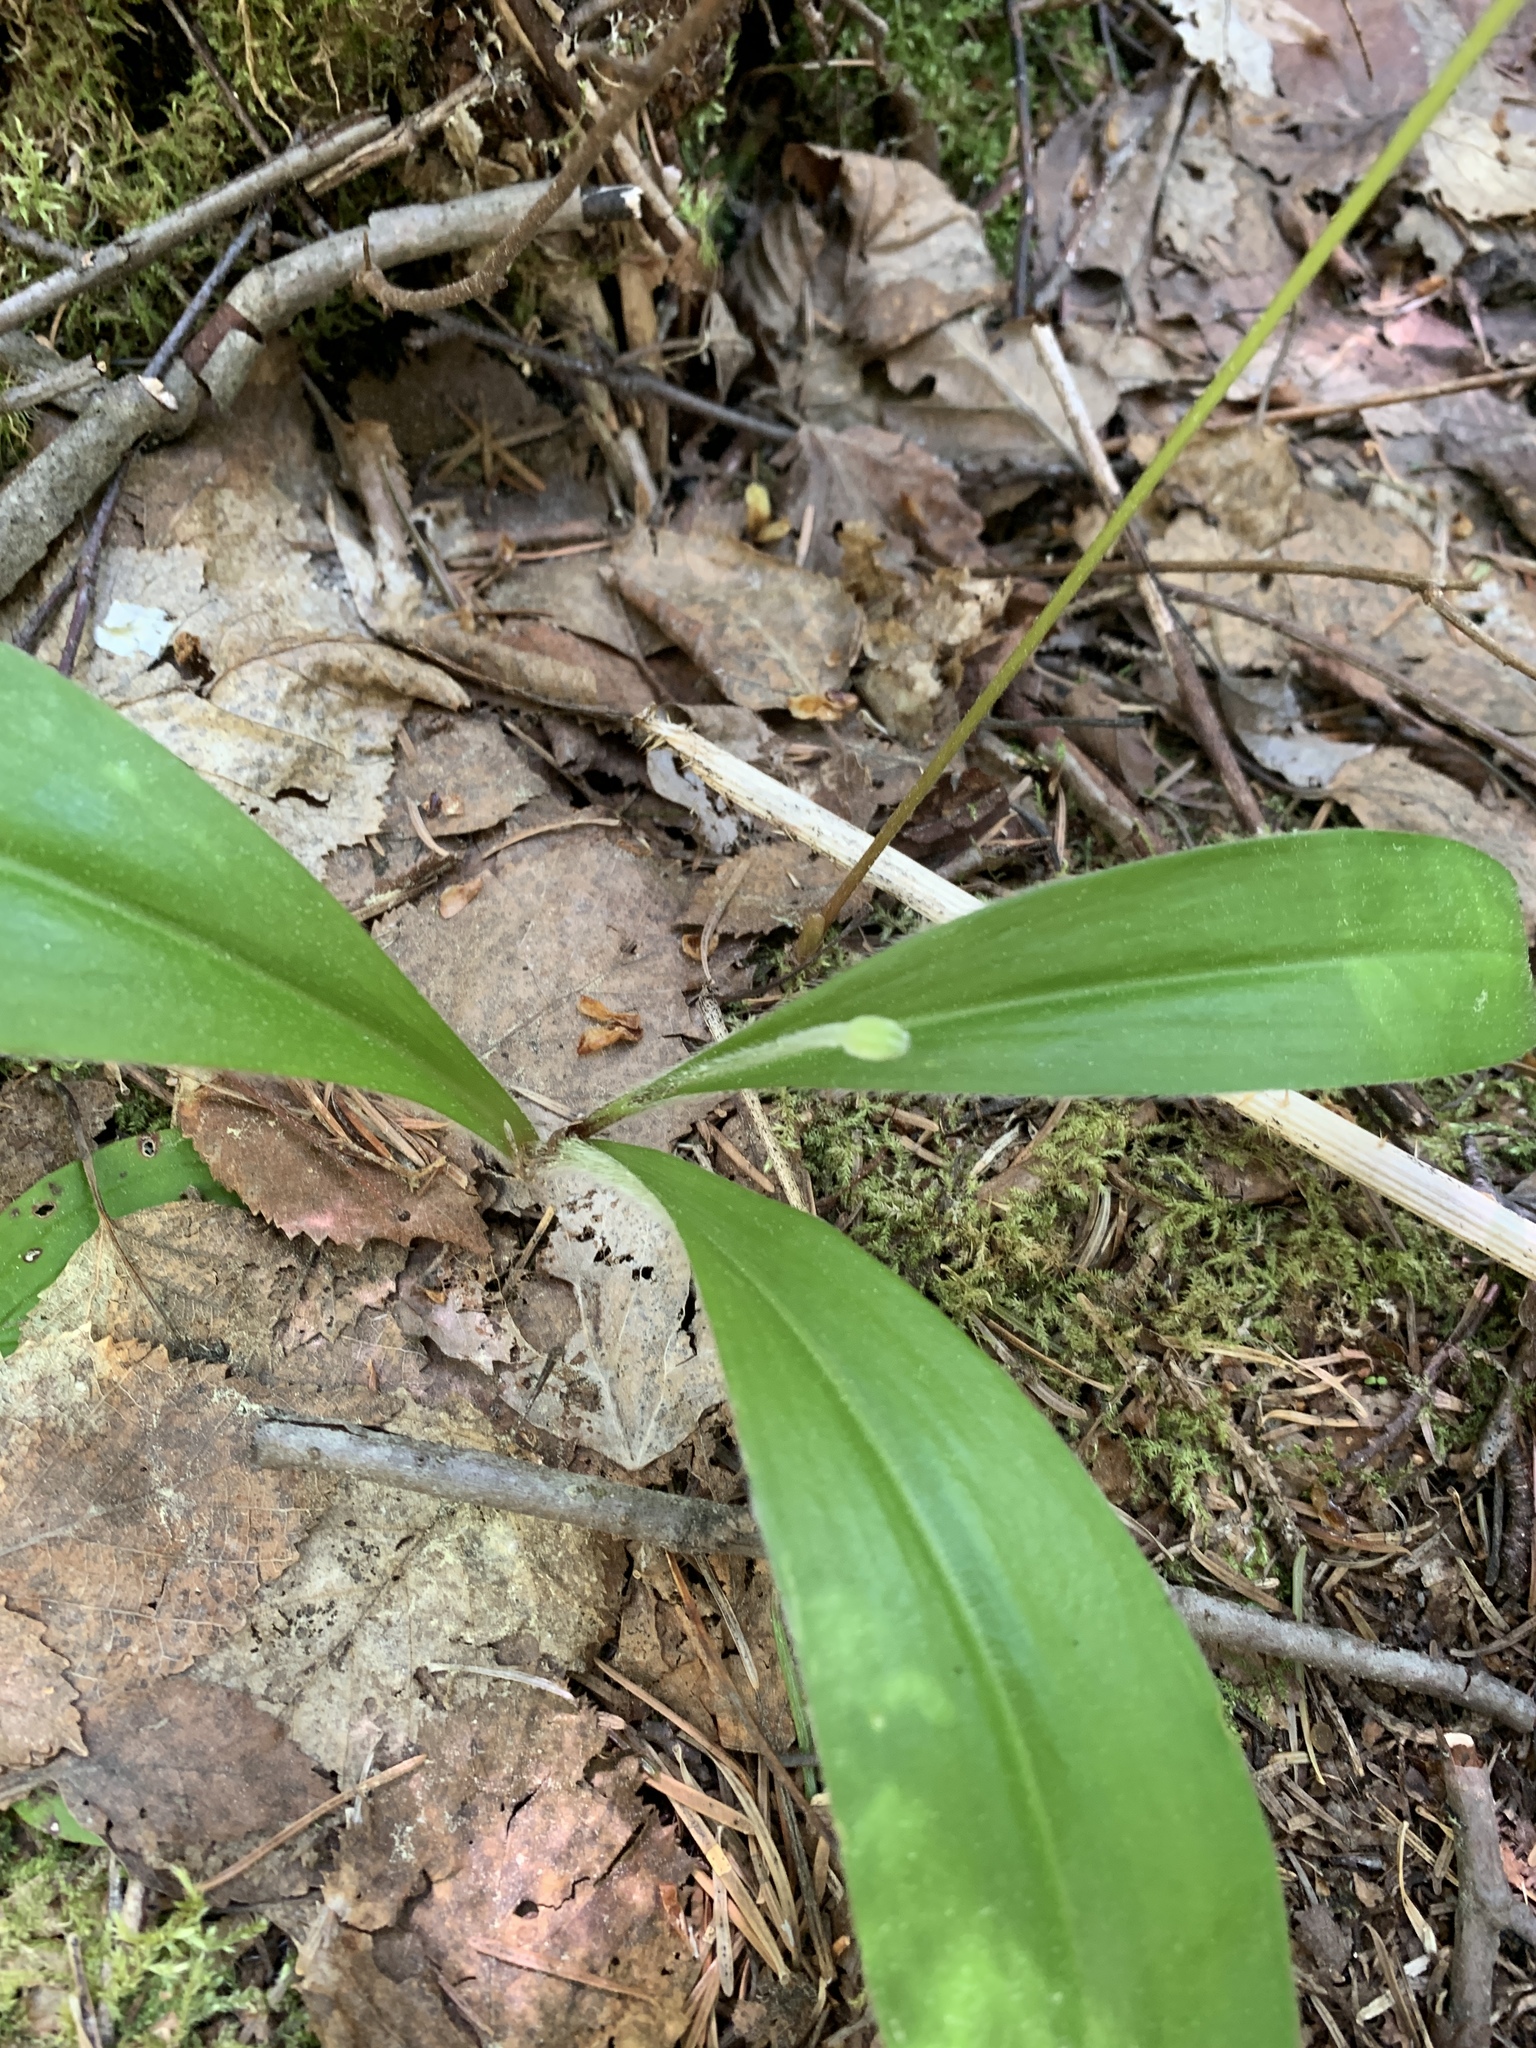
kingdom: Plantae
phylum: Tracheophyta
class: Liliopsida
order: Liliales
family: Liliaceae
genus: Clintonia
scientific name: Clintonia uniflora
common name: Queen's cup
